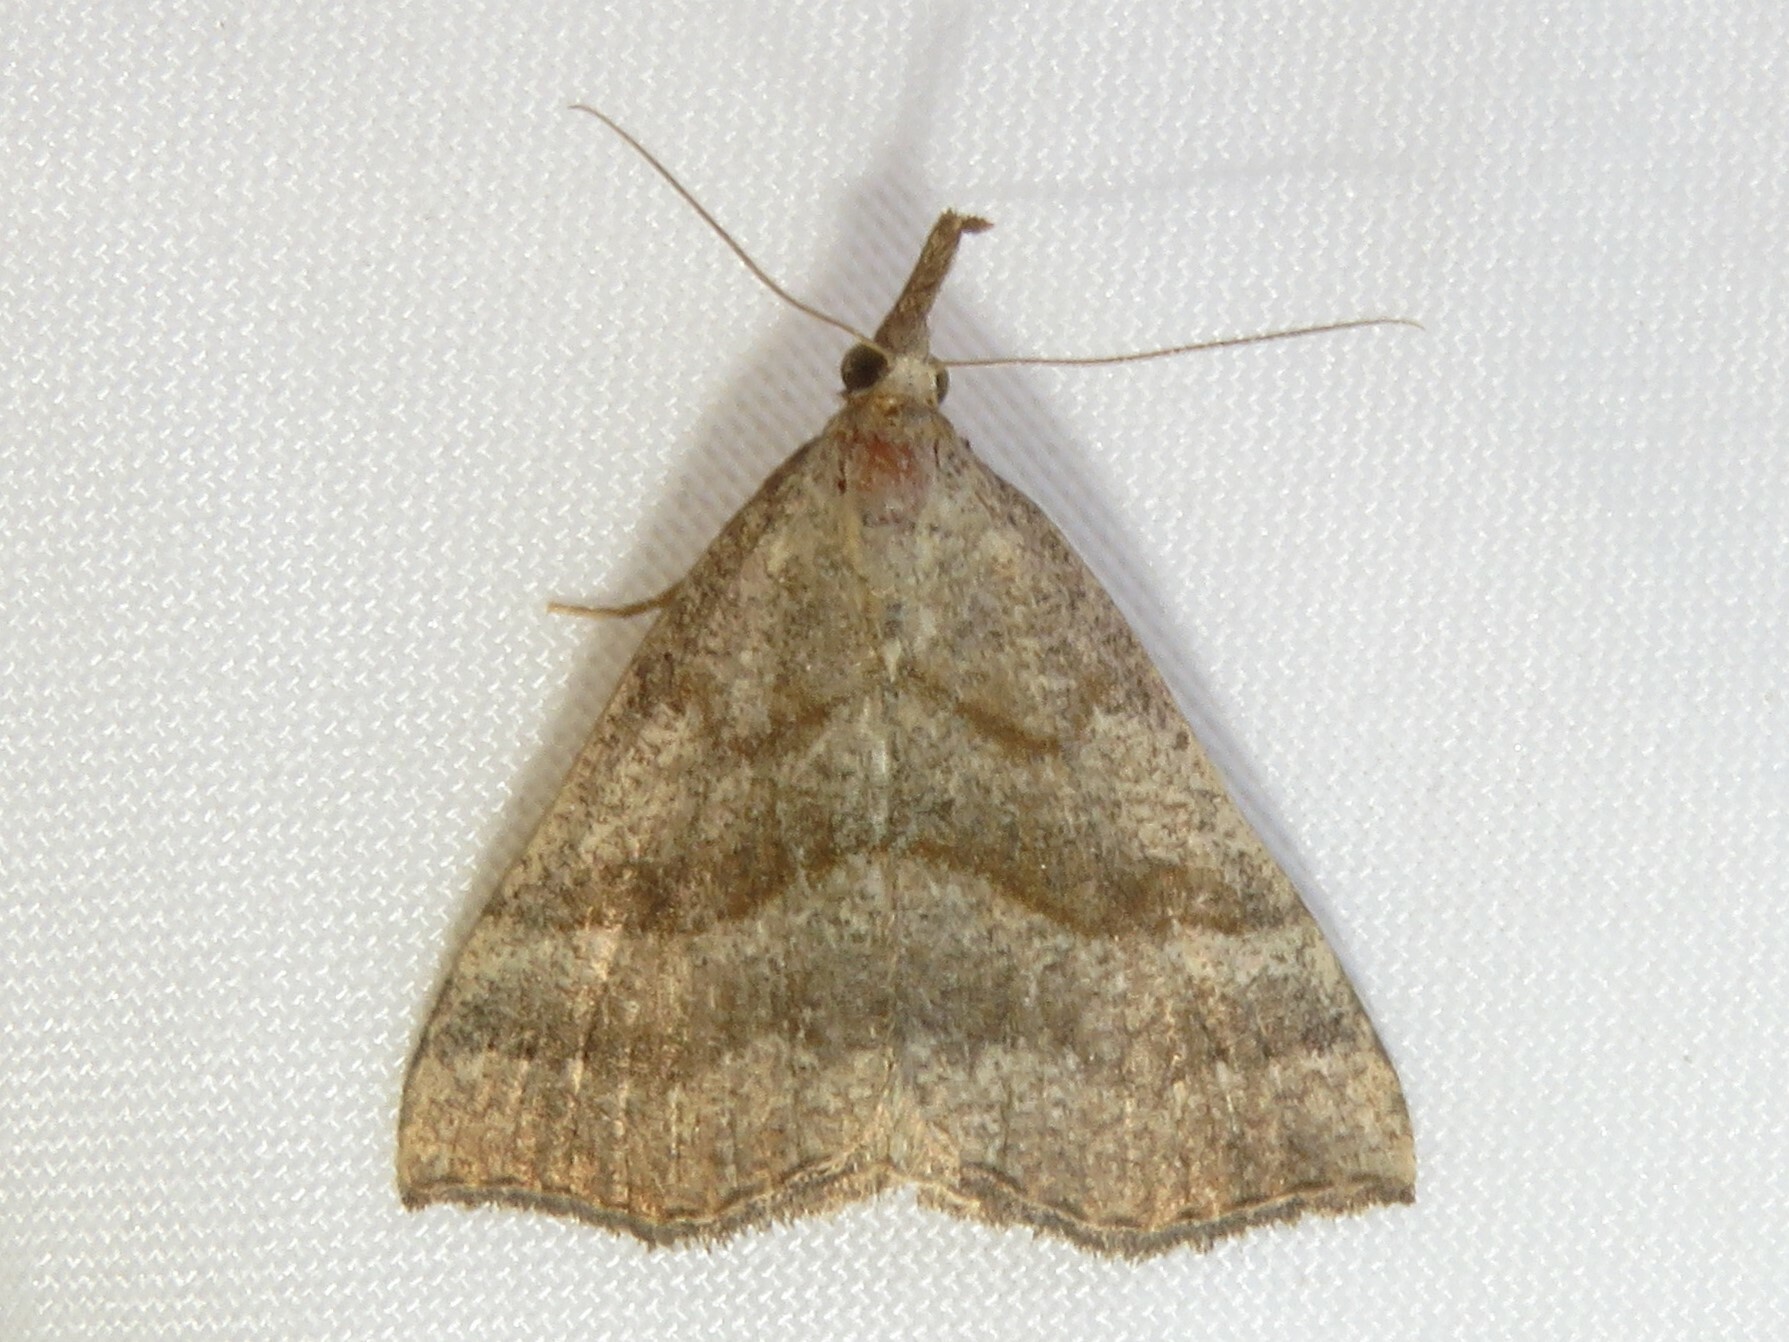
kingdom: Animalia
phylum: Arthropoda
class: Insecta
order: Lepidoptera
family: Erebidae
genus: Hypena
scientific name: Hypena atomaria
